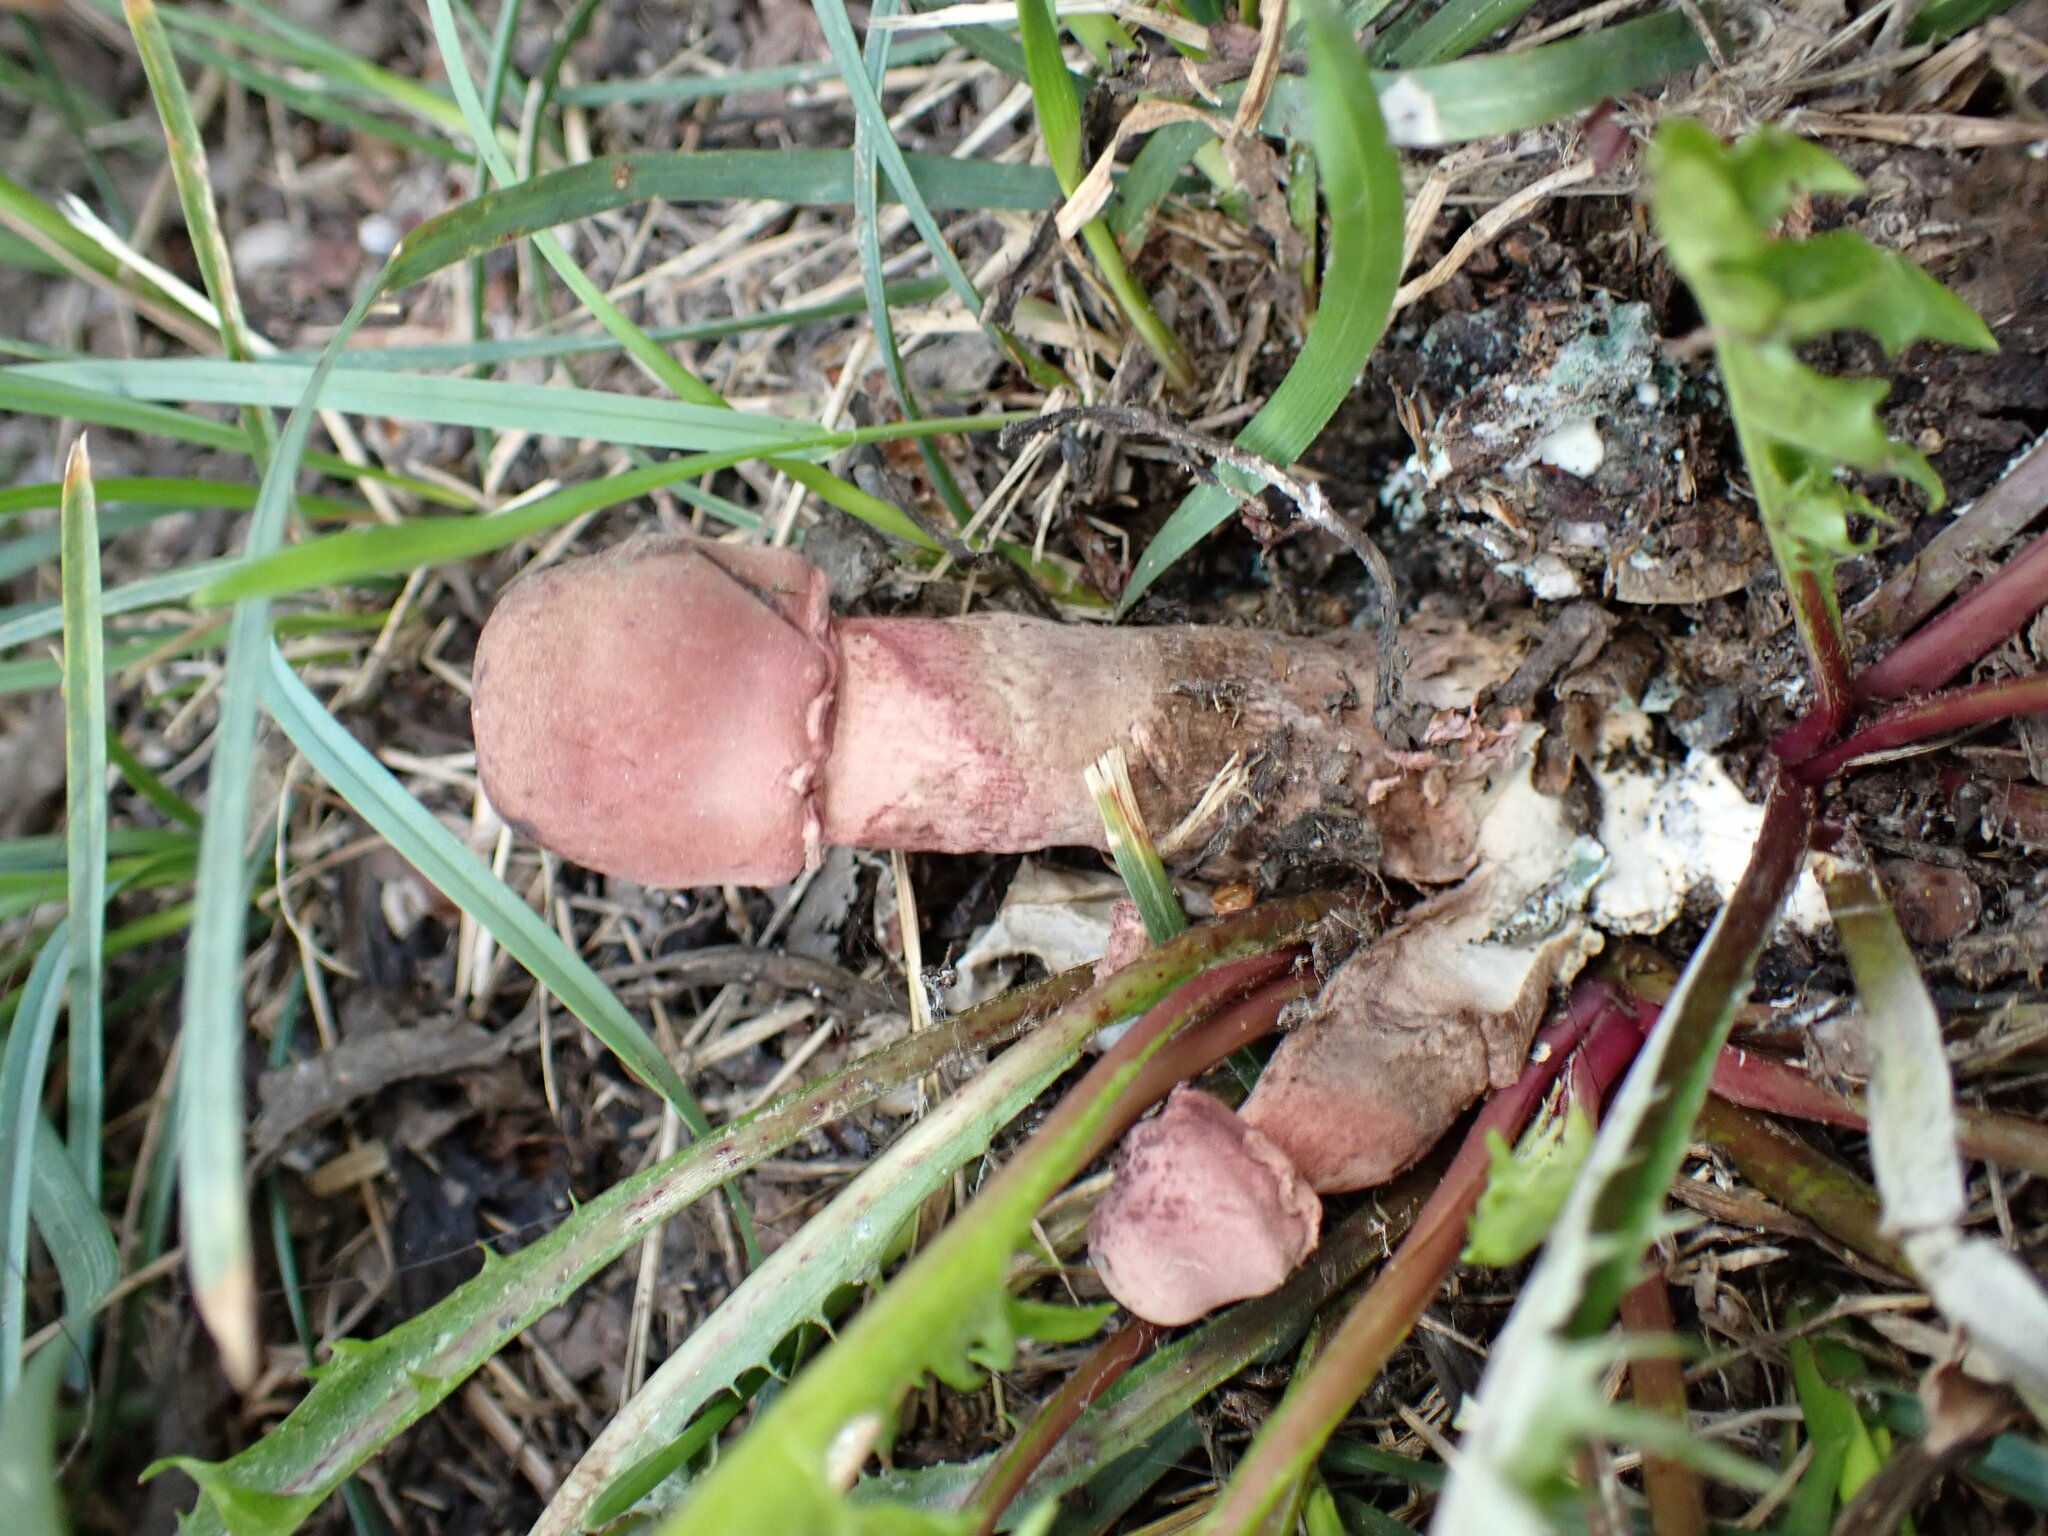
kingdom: Fungi
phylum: Basidiomycota
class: Agaricomycetes
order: Agaricales
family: Agaricaceae
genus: Leucoagaricus
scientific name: Leucoagaricus americanus
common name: Reddening lepiota
